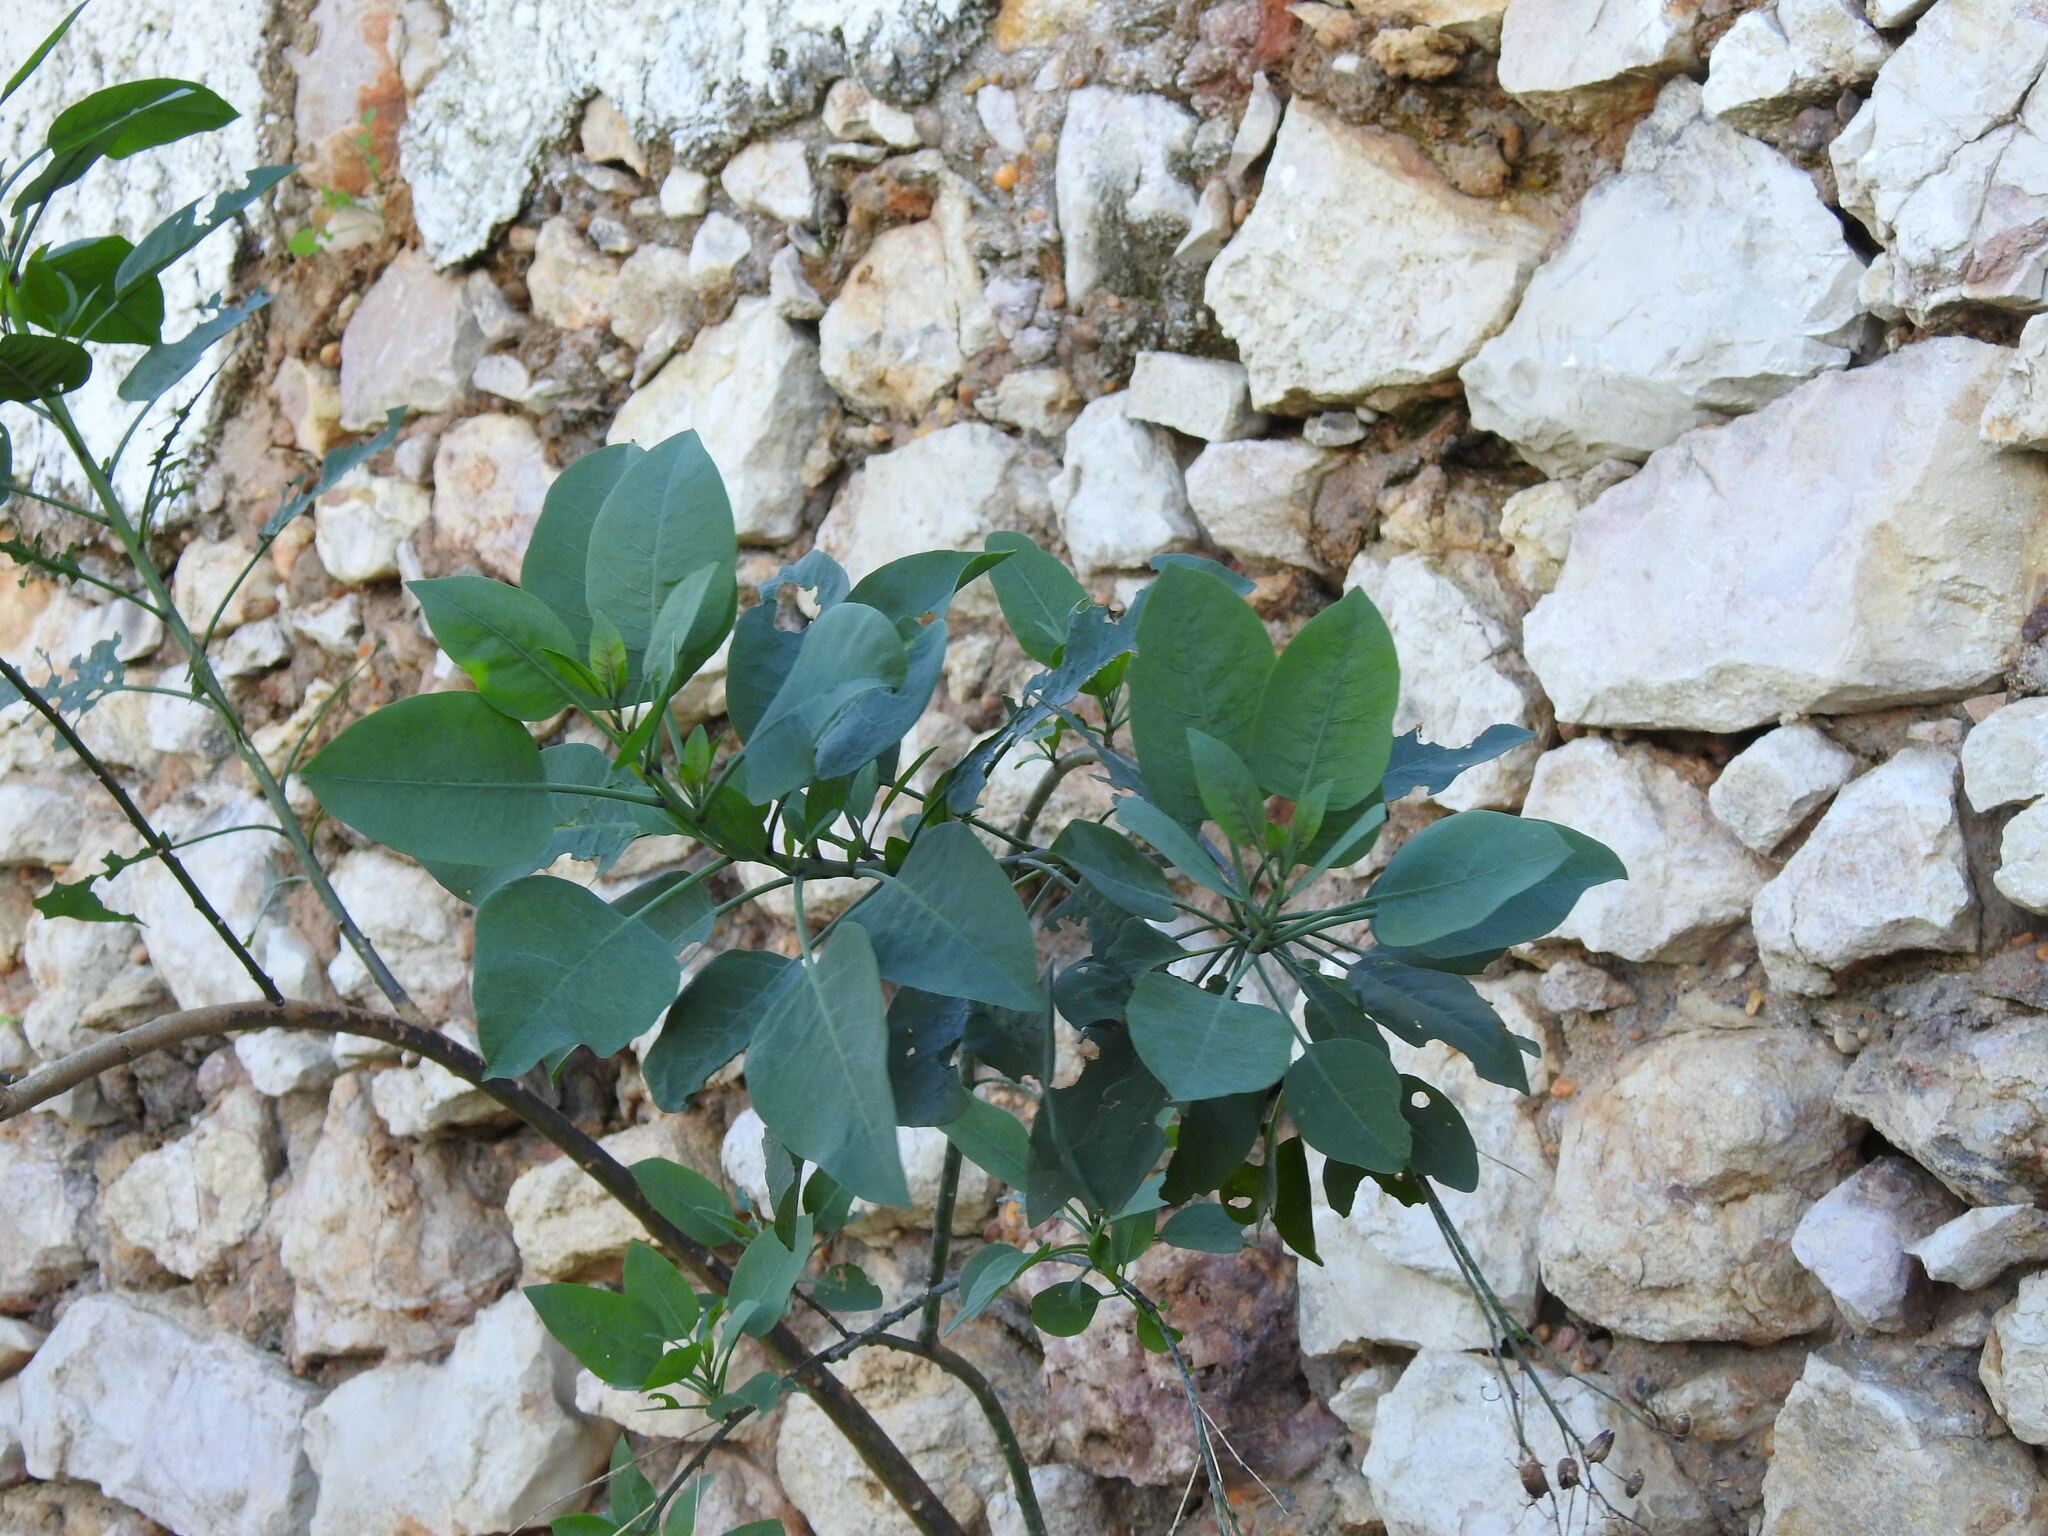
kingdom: Plantae
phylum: Tracheophyta
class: Magnoliopsida
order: Solanales
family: Solanaceae
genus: Nicotiana
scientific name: Nicotiana glauca
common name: Tree tobacco
